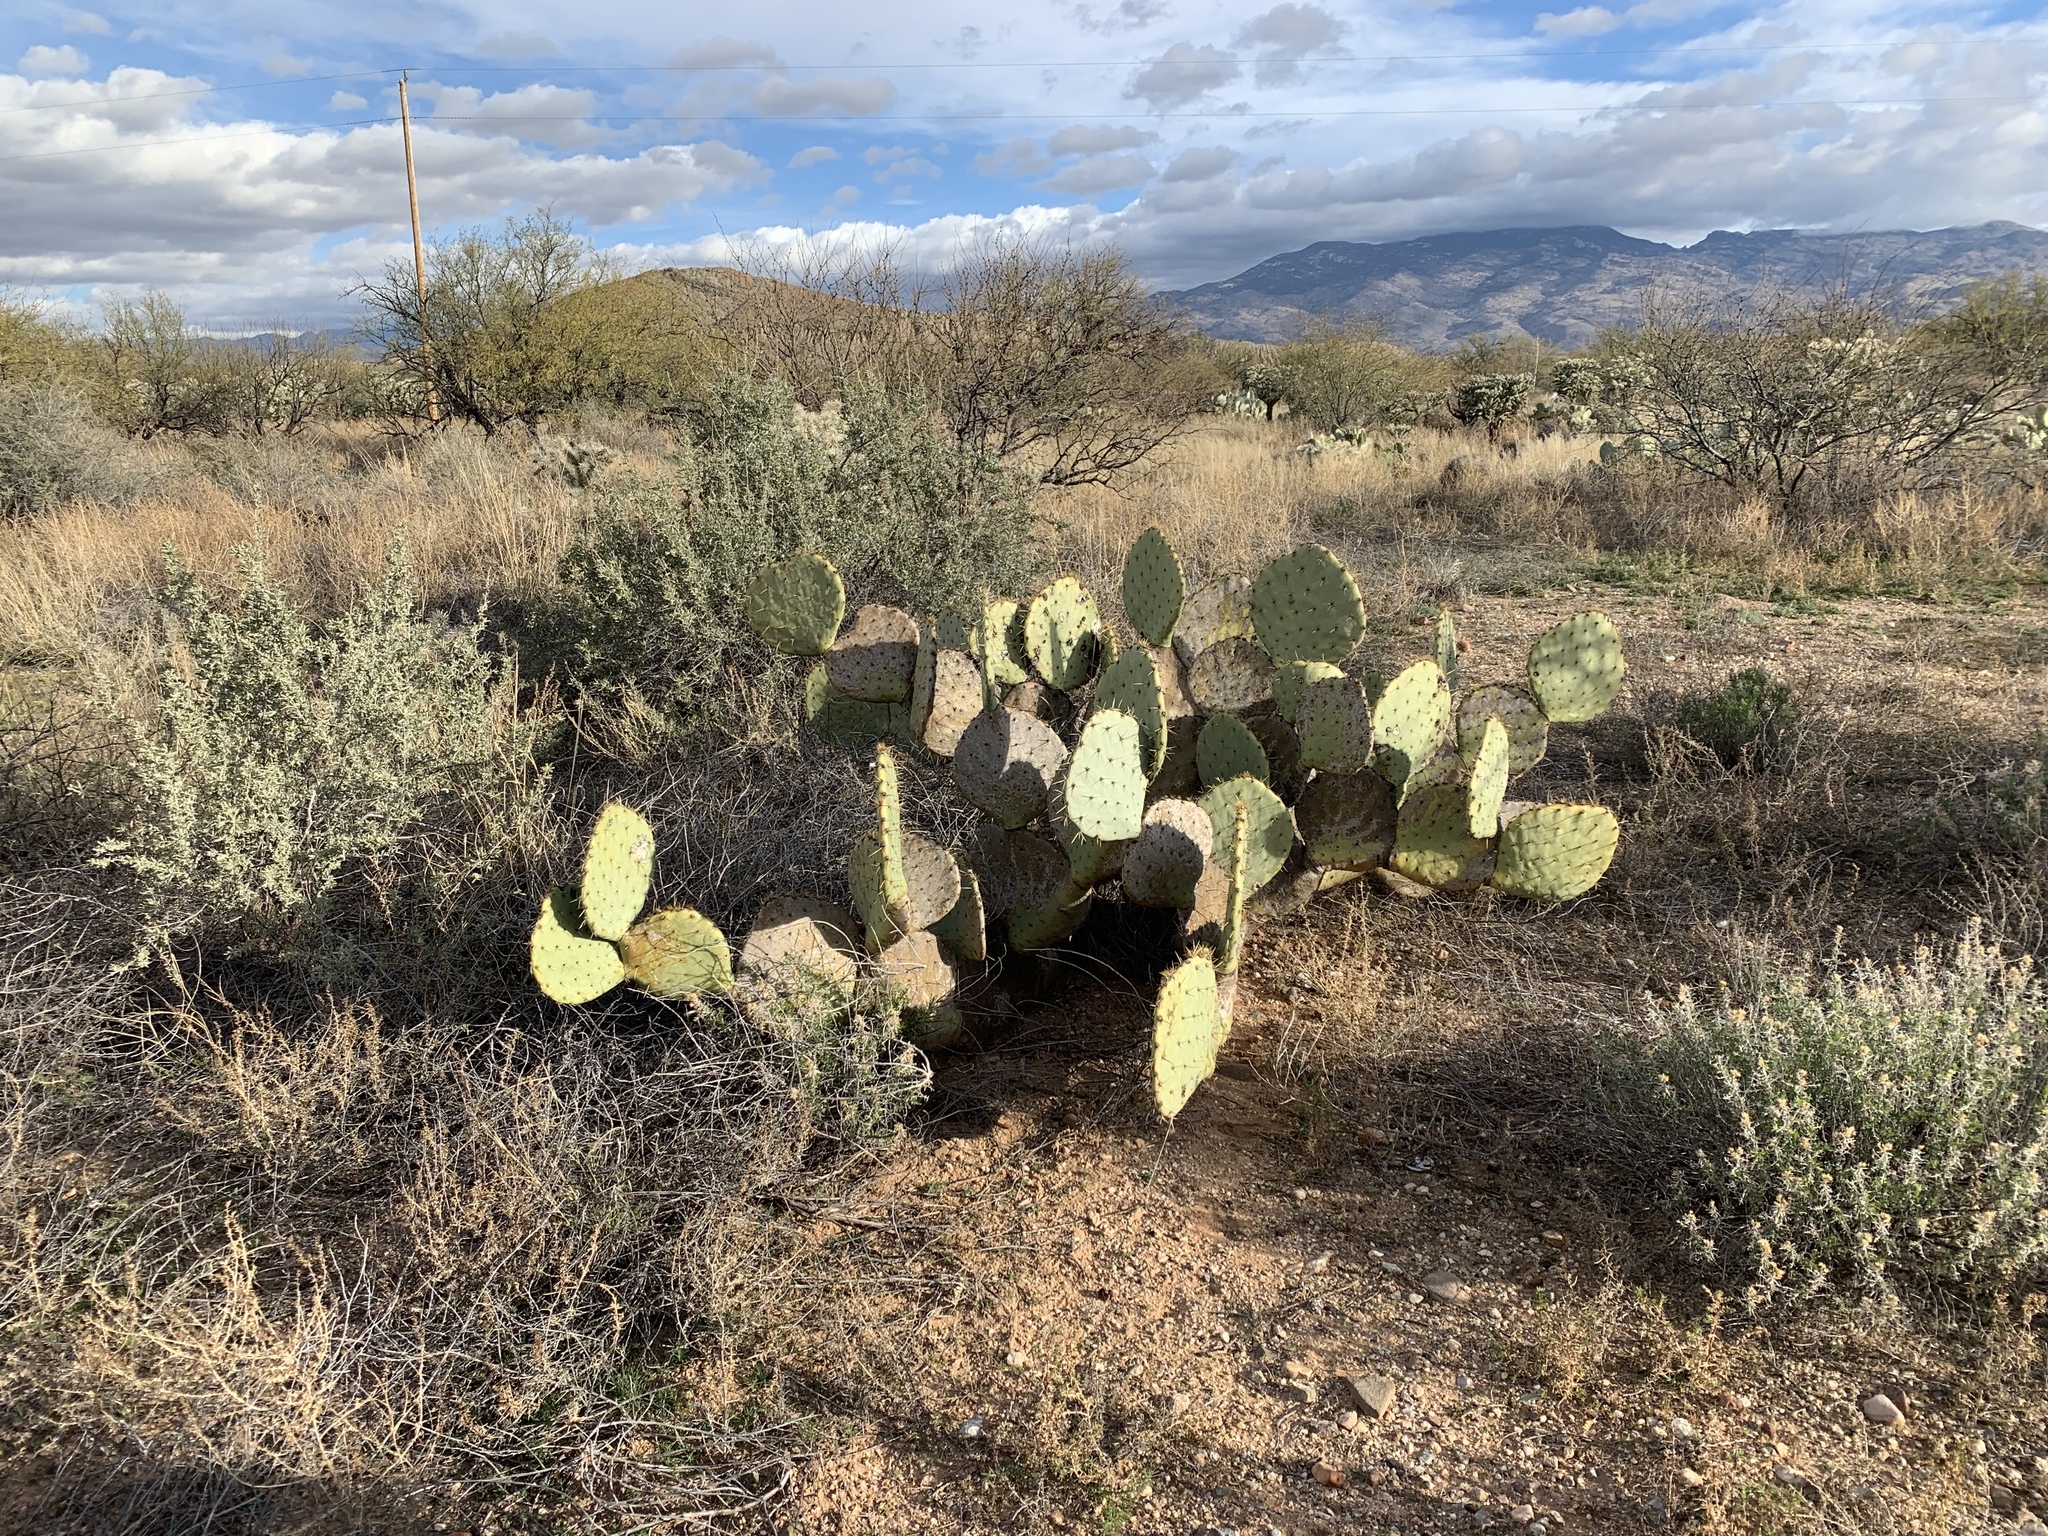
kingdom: Plantae
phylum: Tracheophyta
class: Magnoliopsida
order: Caryophyllales
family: Cactaceae
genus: Opuntia
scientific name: Opuntia engelmannii
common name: Cactus-apple
